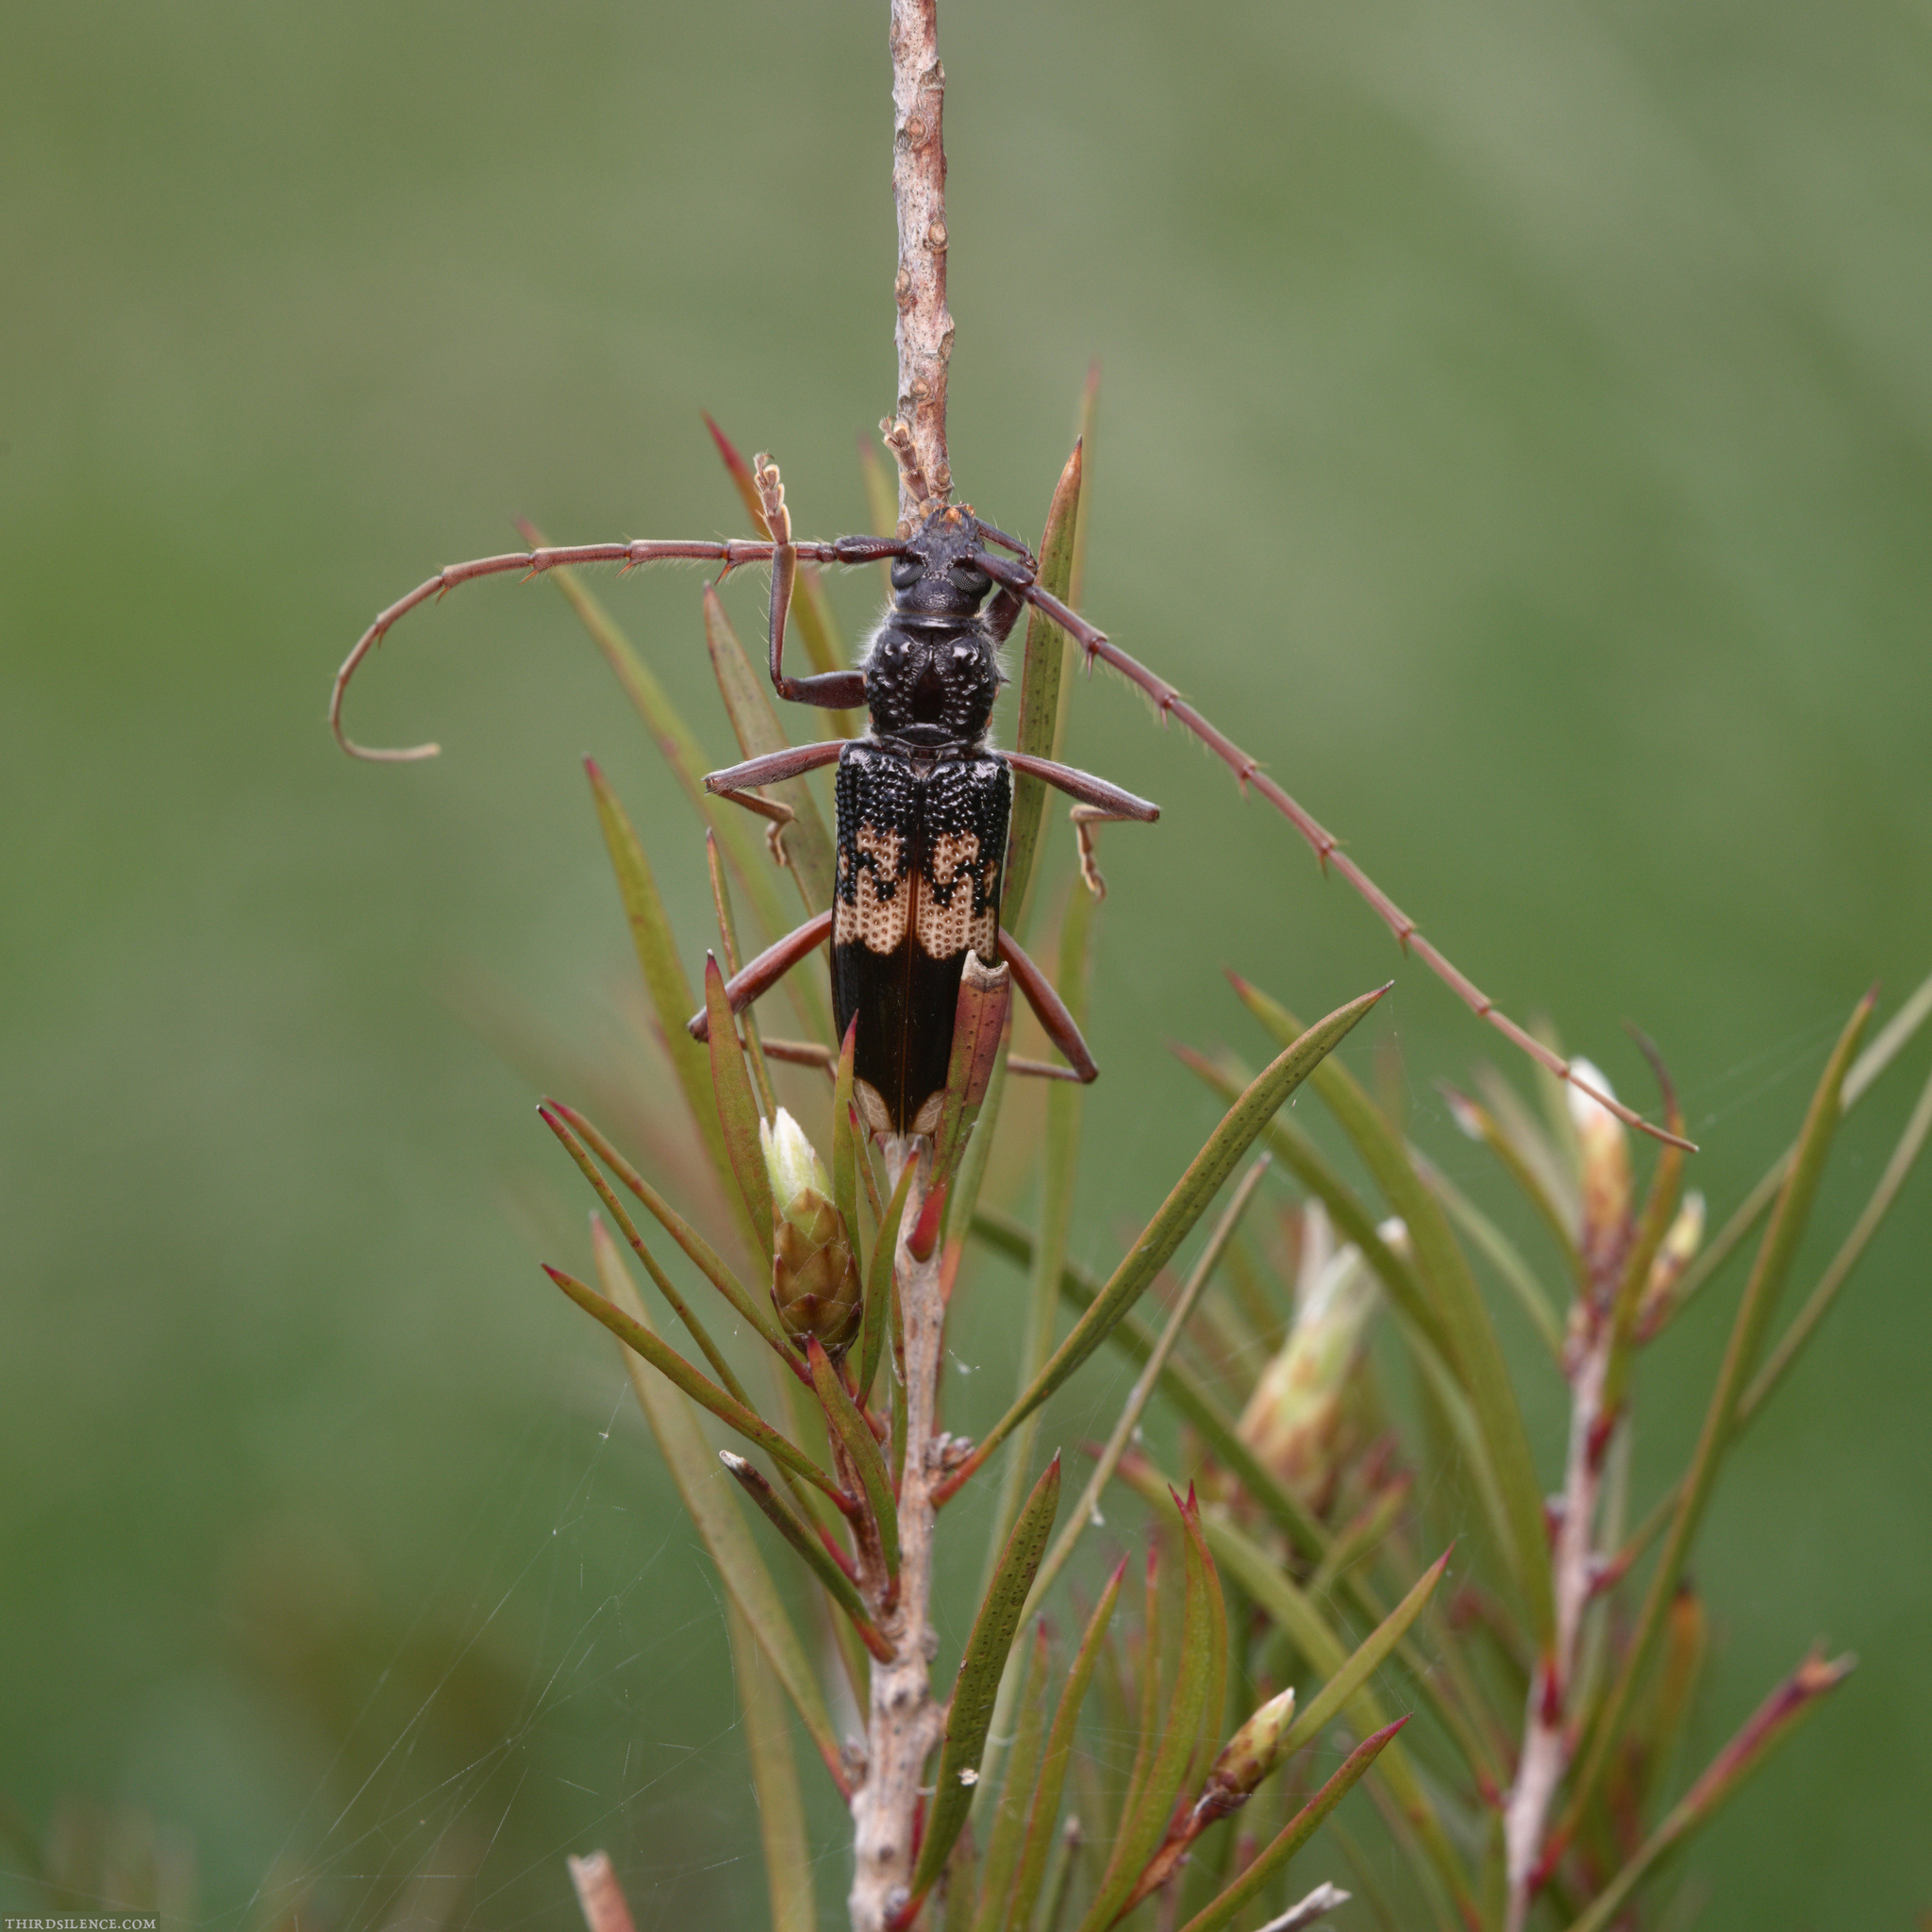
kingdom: Animalia
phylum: Arthropoda
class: Insecta
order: Coleoptera
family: Cerambycidae
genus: Phoracantha
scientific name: Phoracantha semipunctata
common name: Eucalyptus longhorn borer
